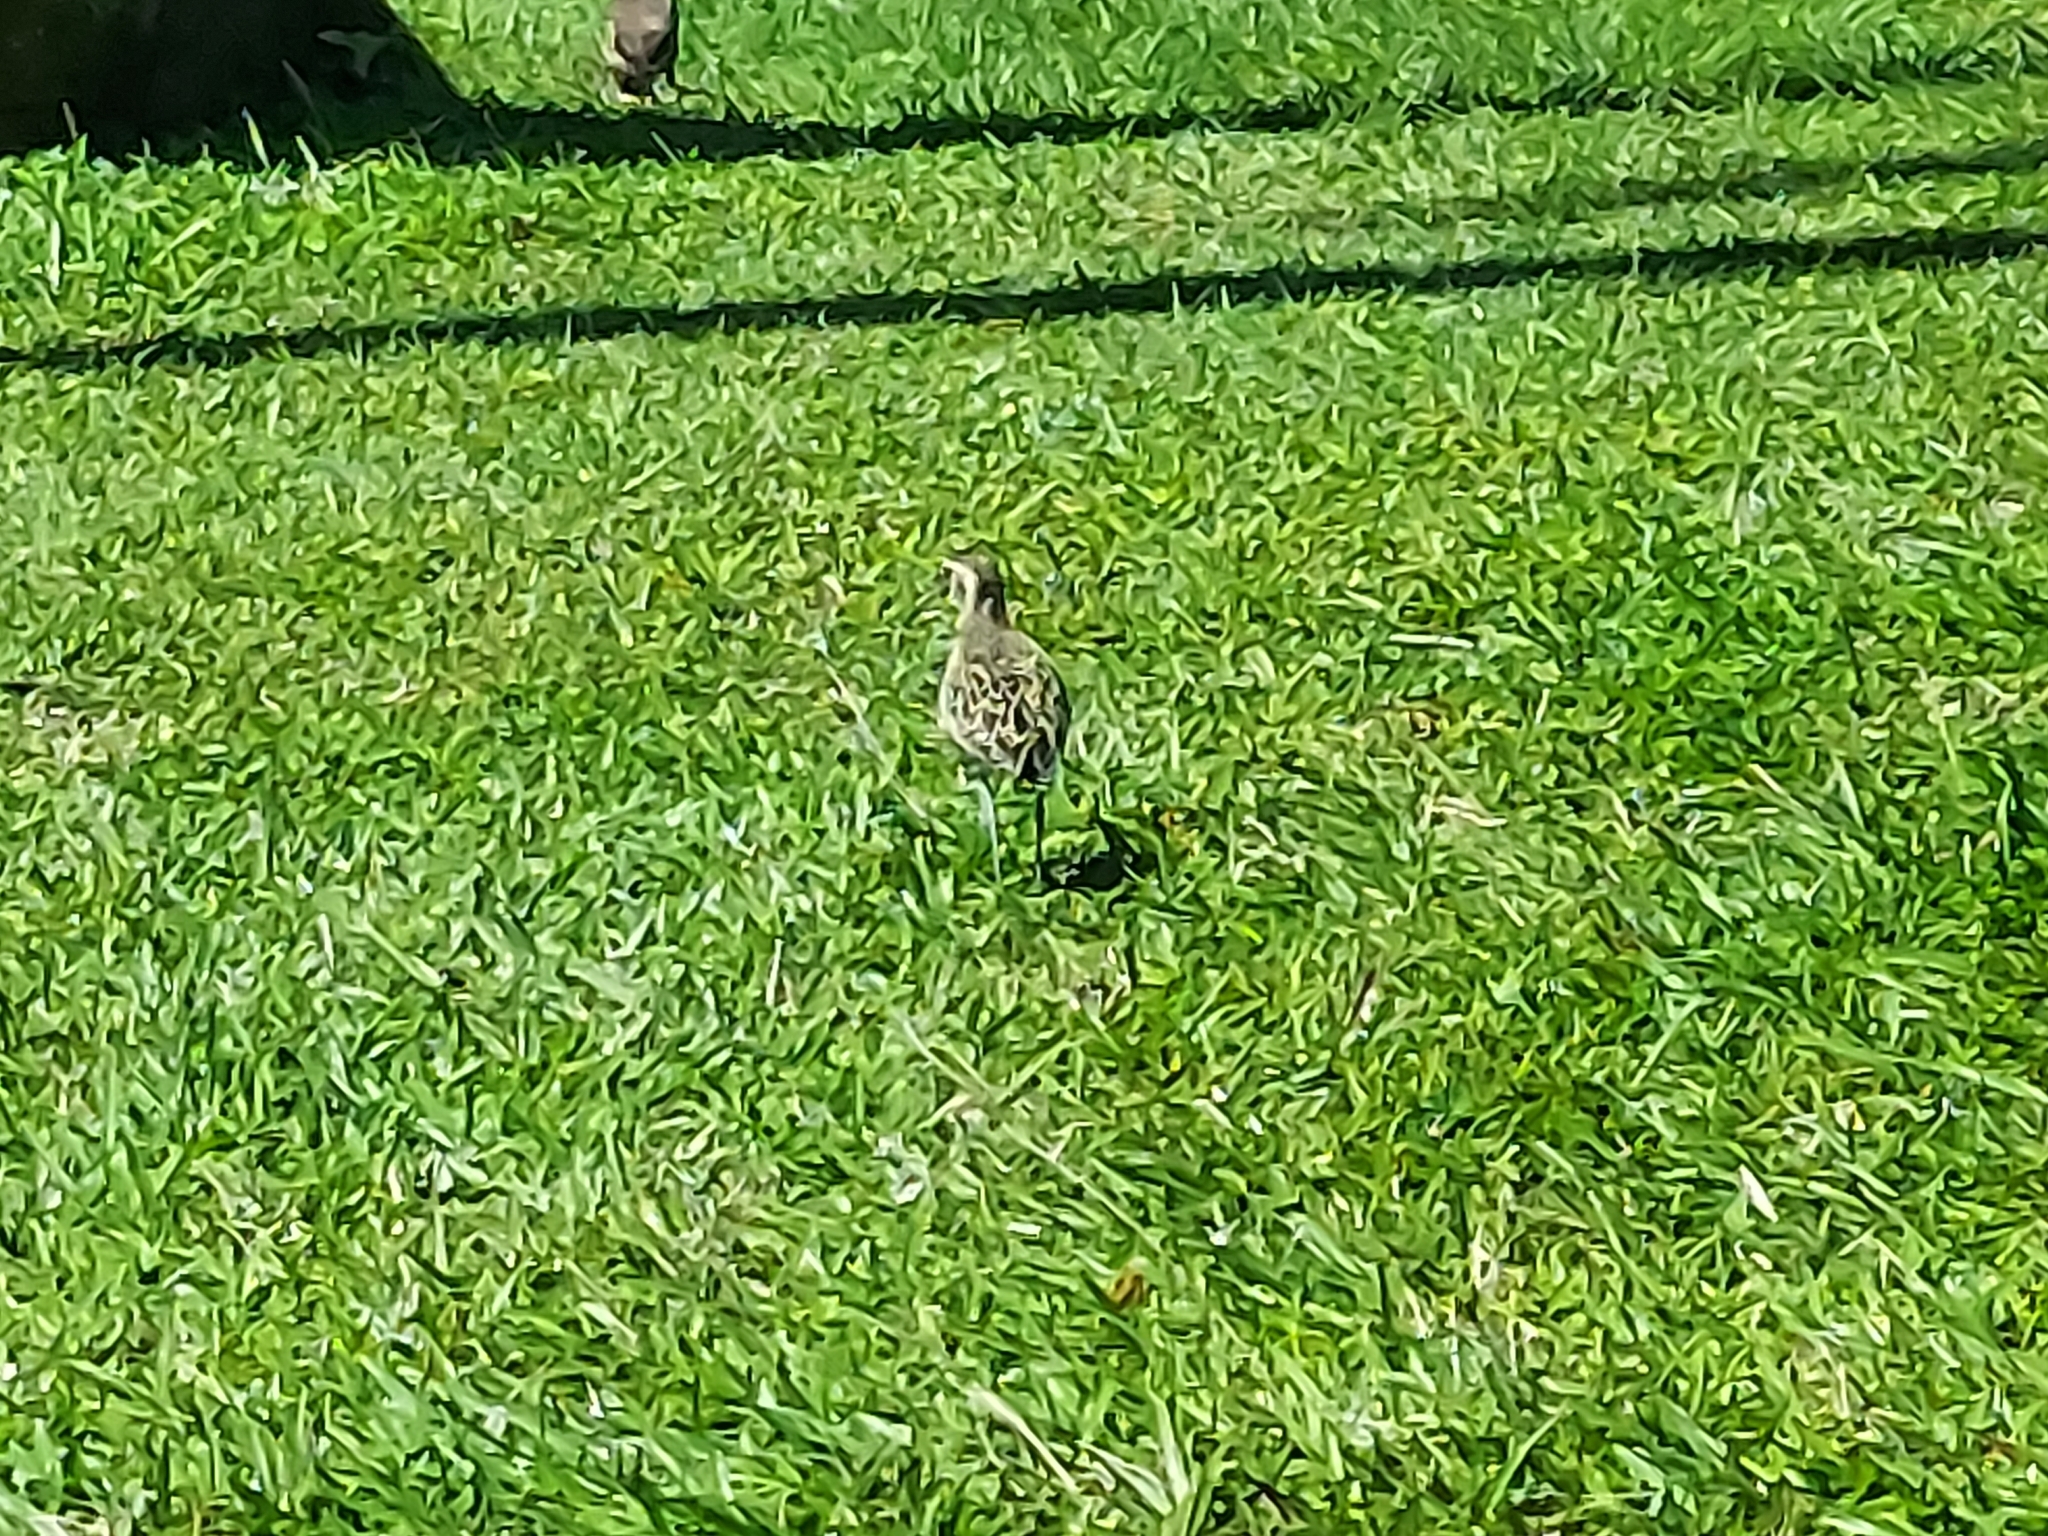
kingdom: Animalia
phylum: Chordata
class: Aves
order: Charadriiformes
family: Charadriidae
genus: Pluvialis
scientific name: Pluvialis fulva
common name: Pacific golden plover
